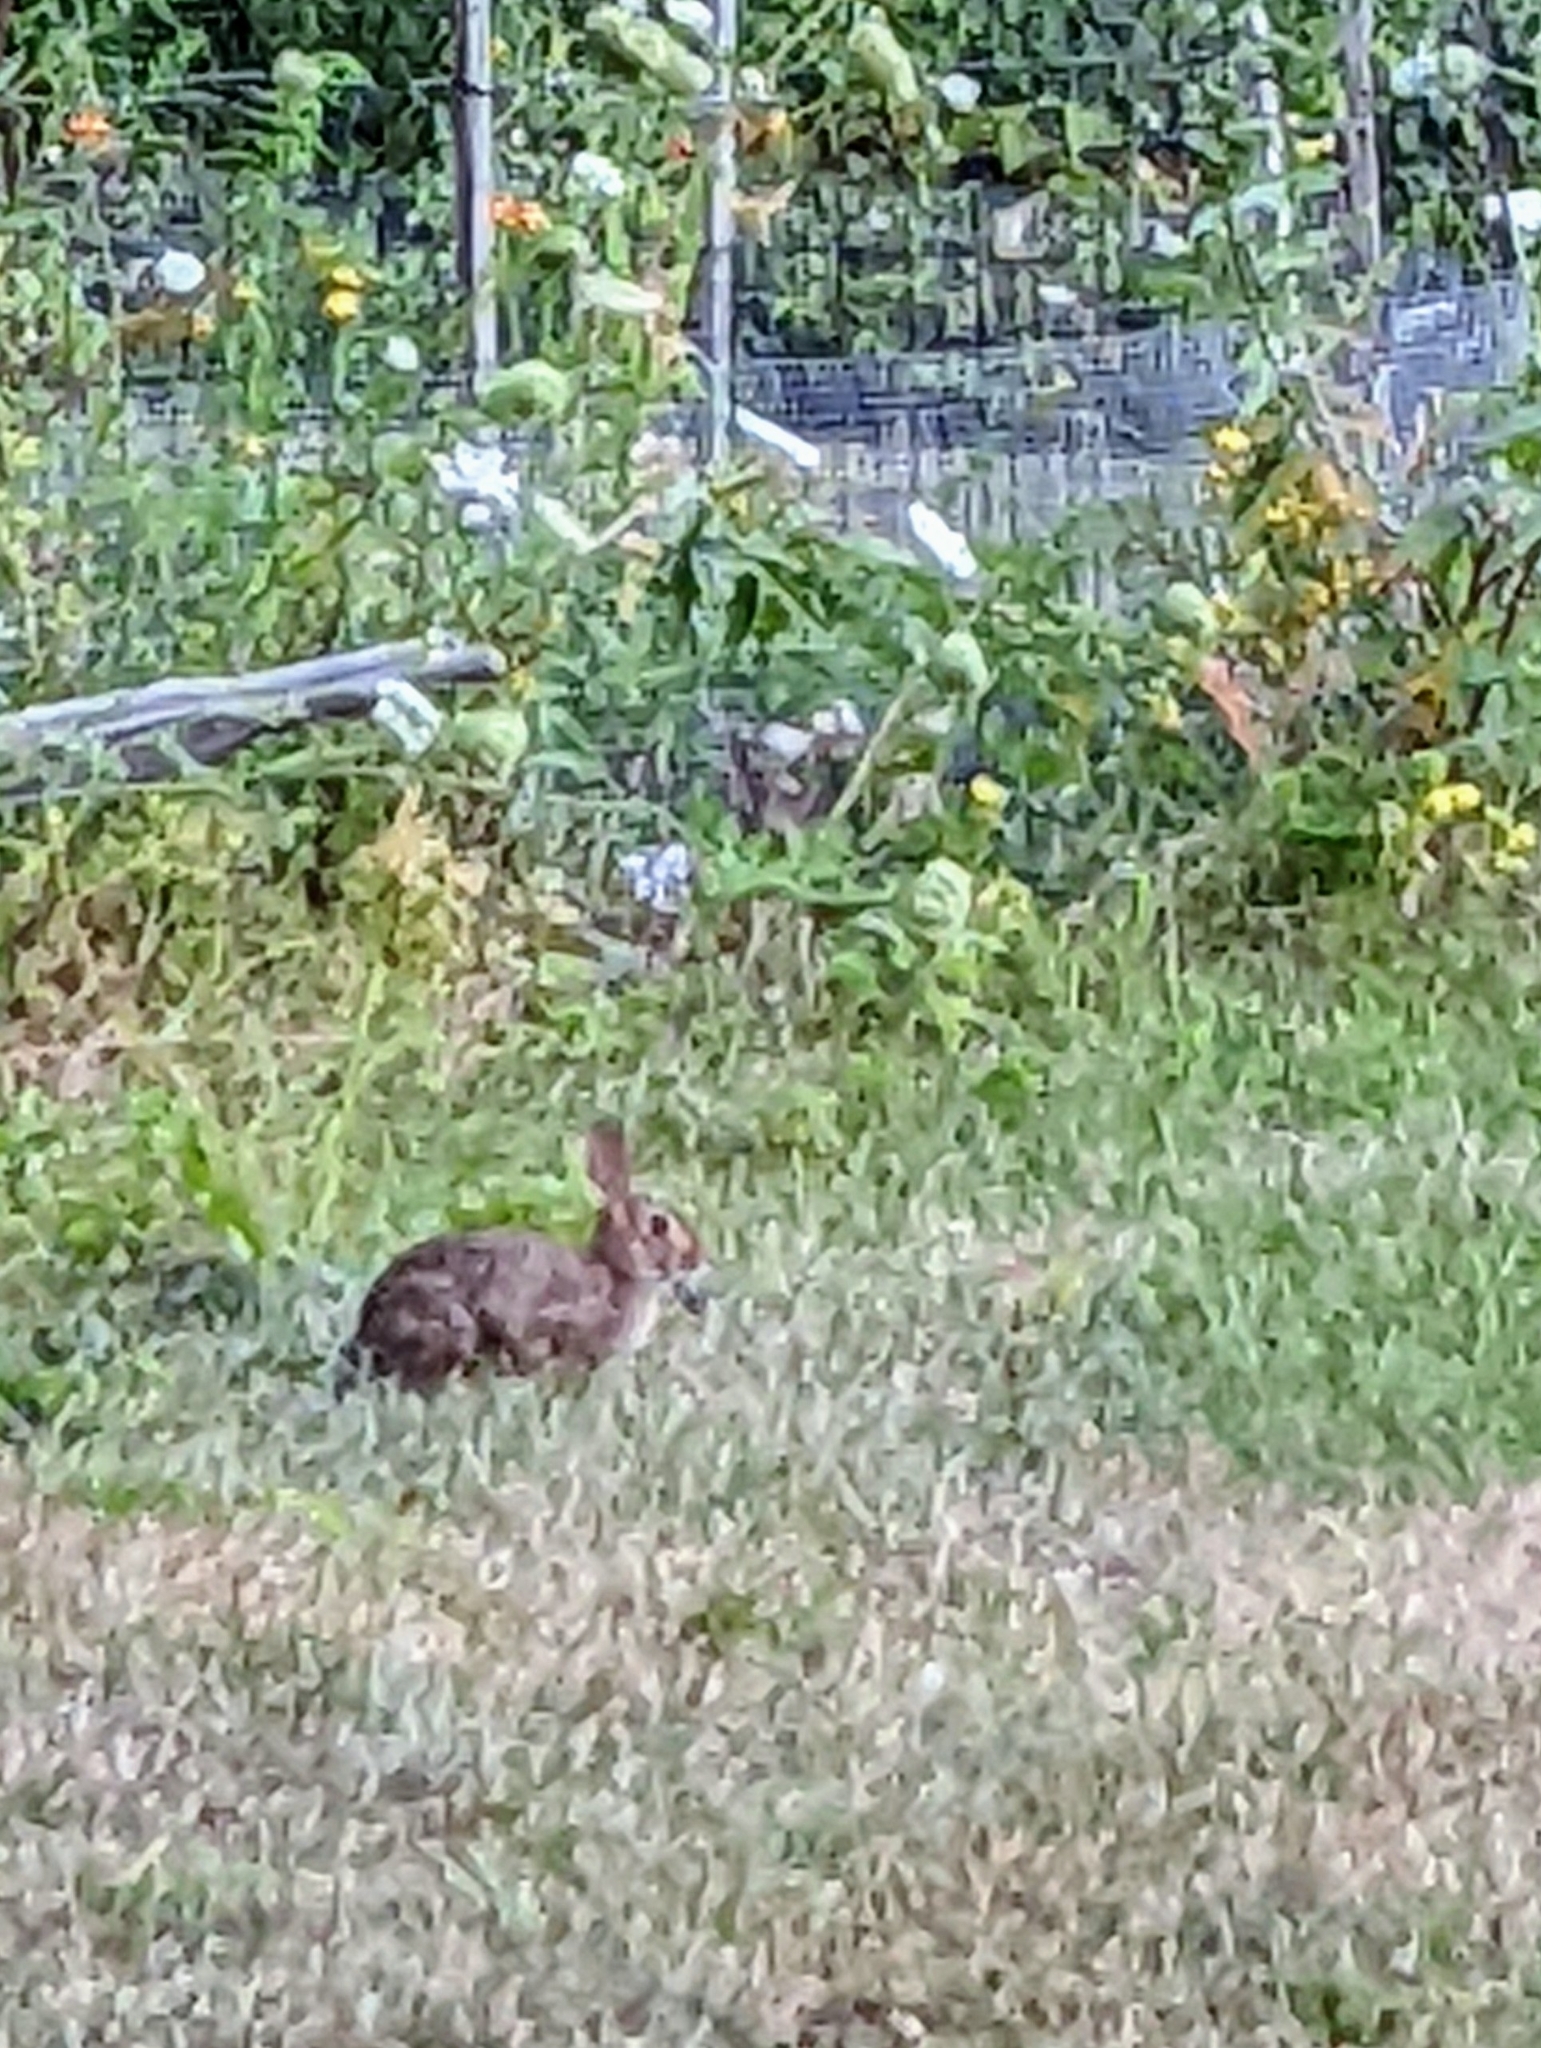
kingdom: Animalia
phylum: Chordata
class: Mammalia
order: Lagomorpha
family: Leporidae
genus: Sylvilagus
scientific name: Sylvilagus floridanus
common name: Eastern cottontail
